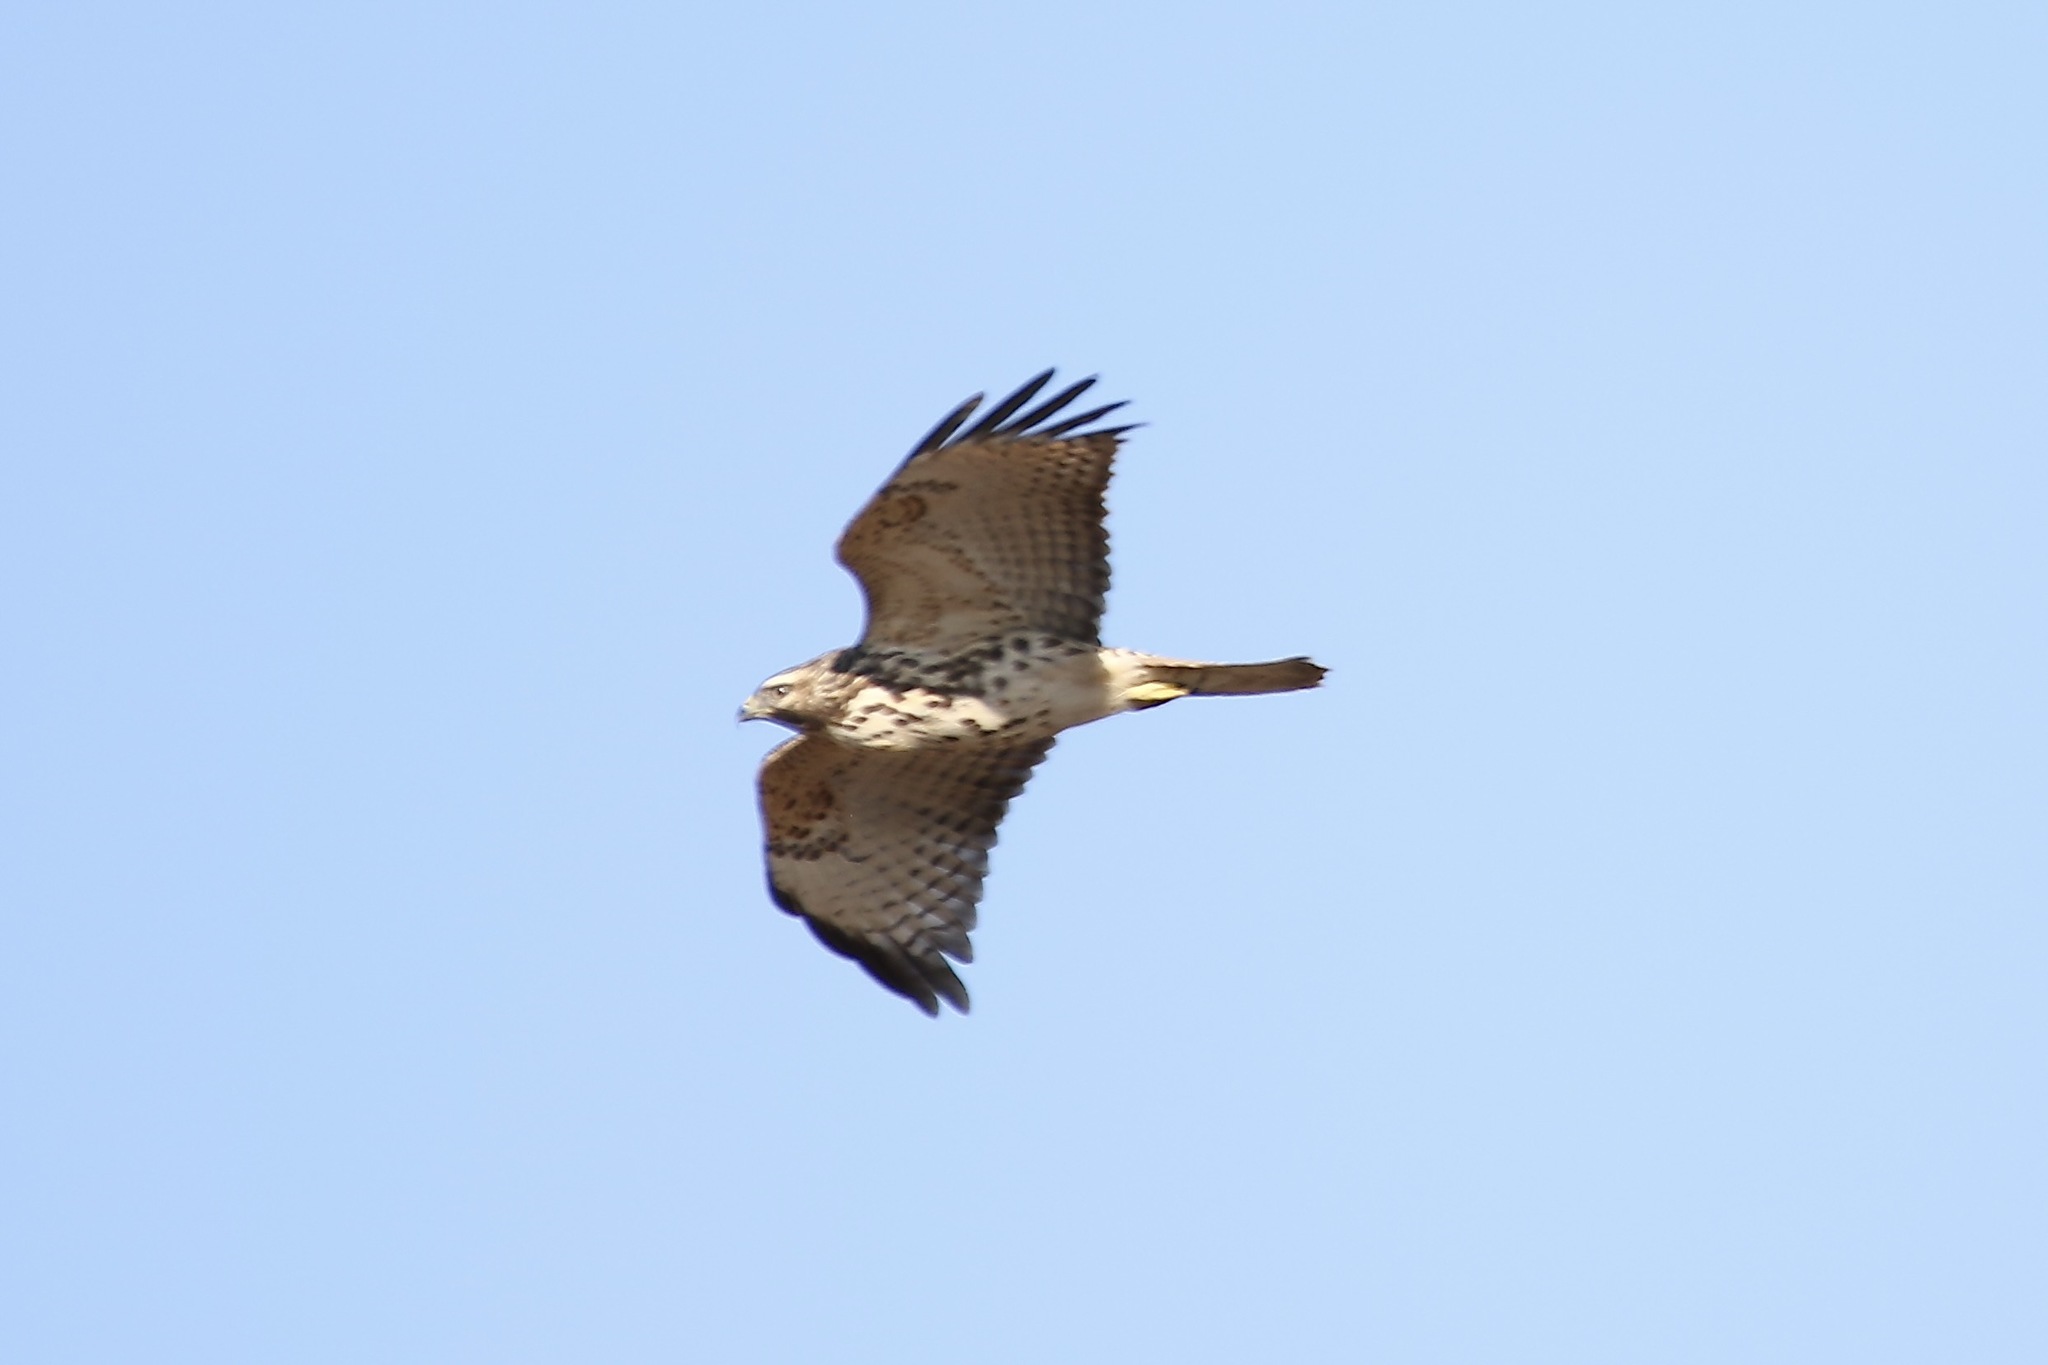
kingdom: Animalia
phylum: Chordata
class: Aves
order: Accipitriformes
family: Accipitridae
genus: Buteo
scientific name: Buteo lineatus
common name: Red-shouldered hawk
